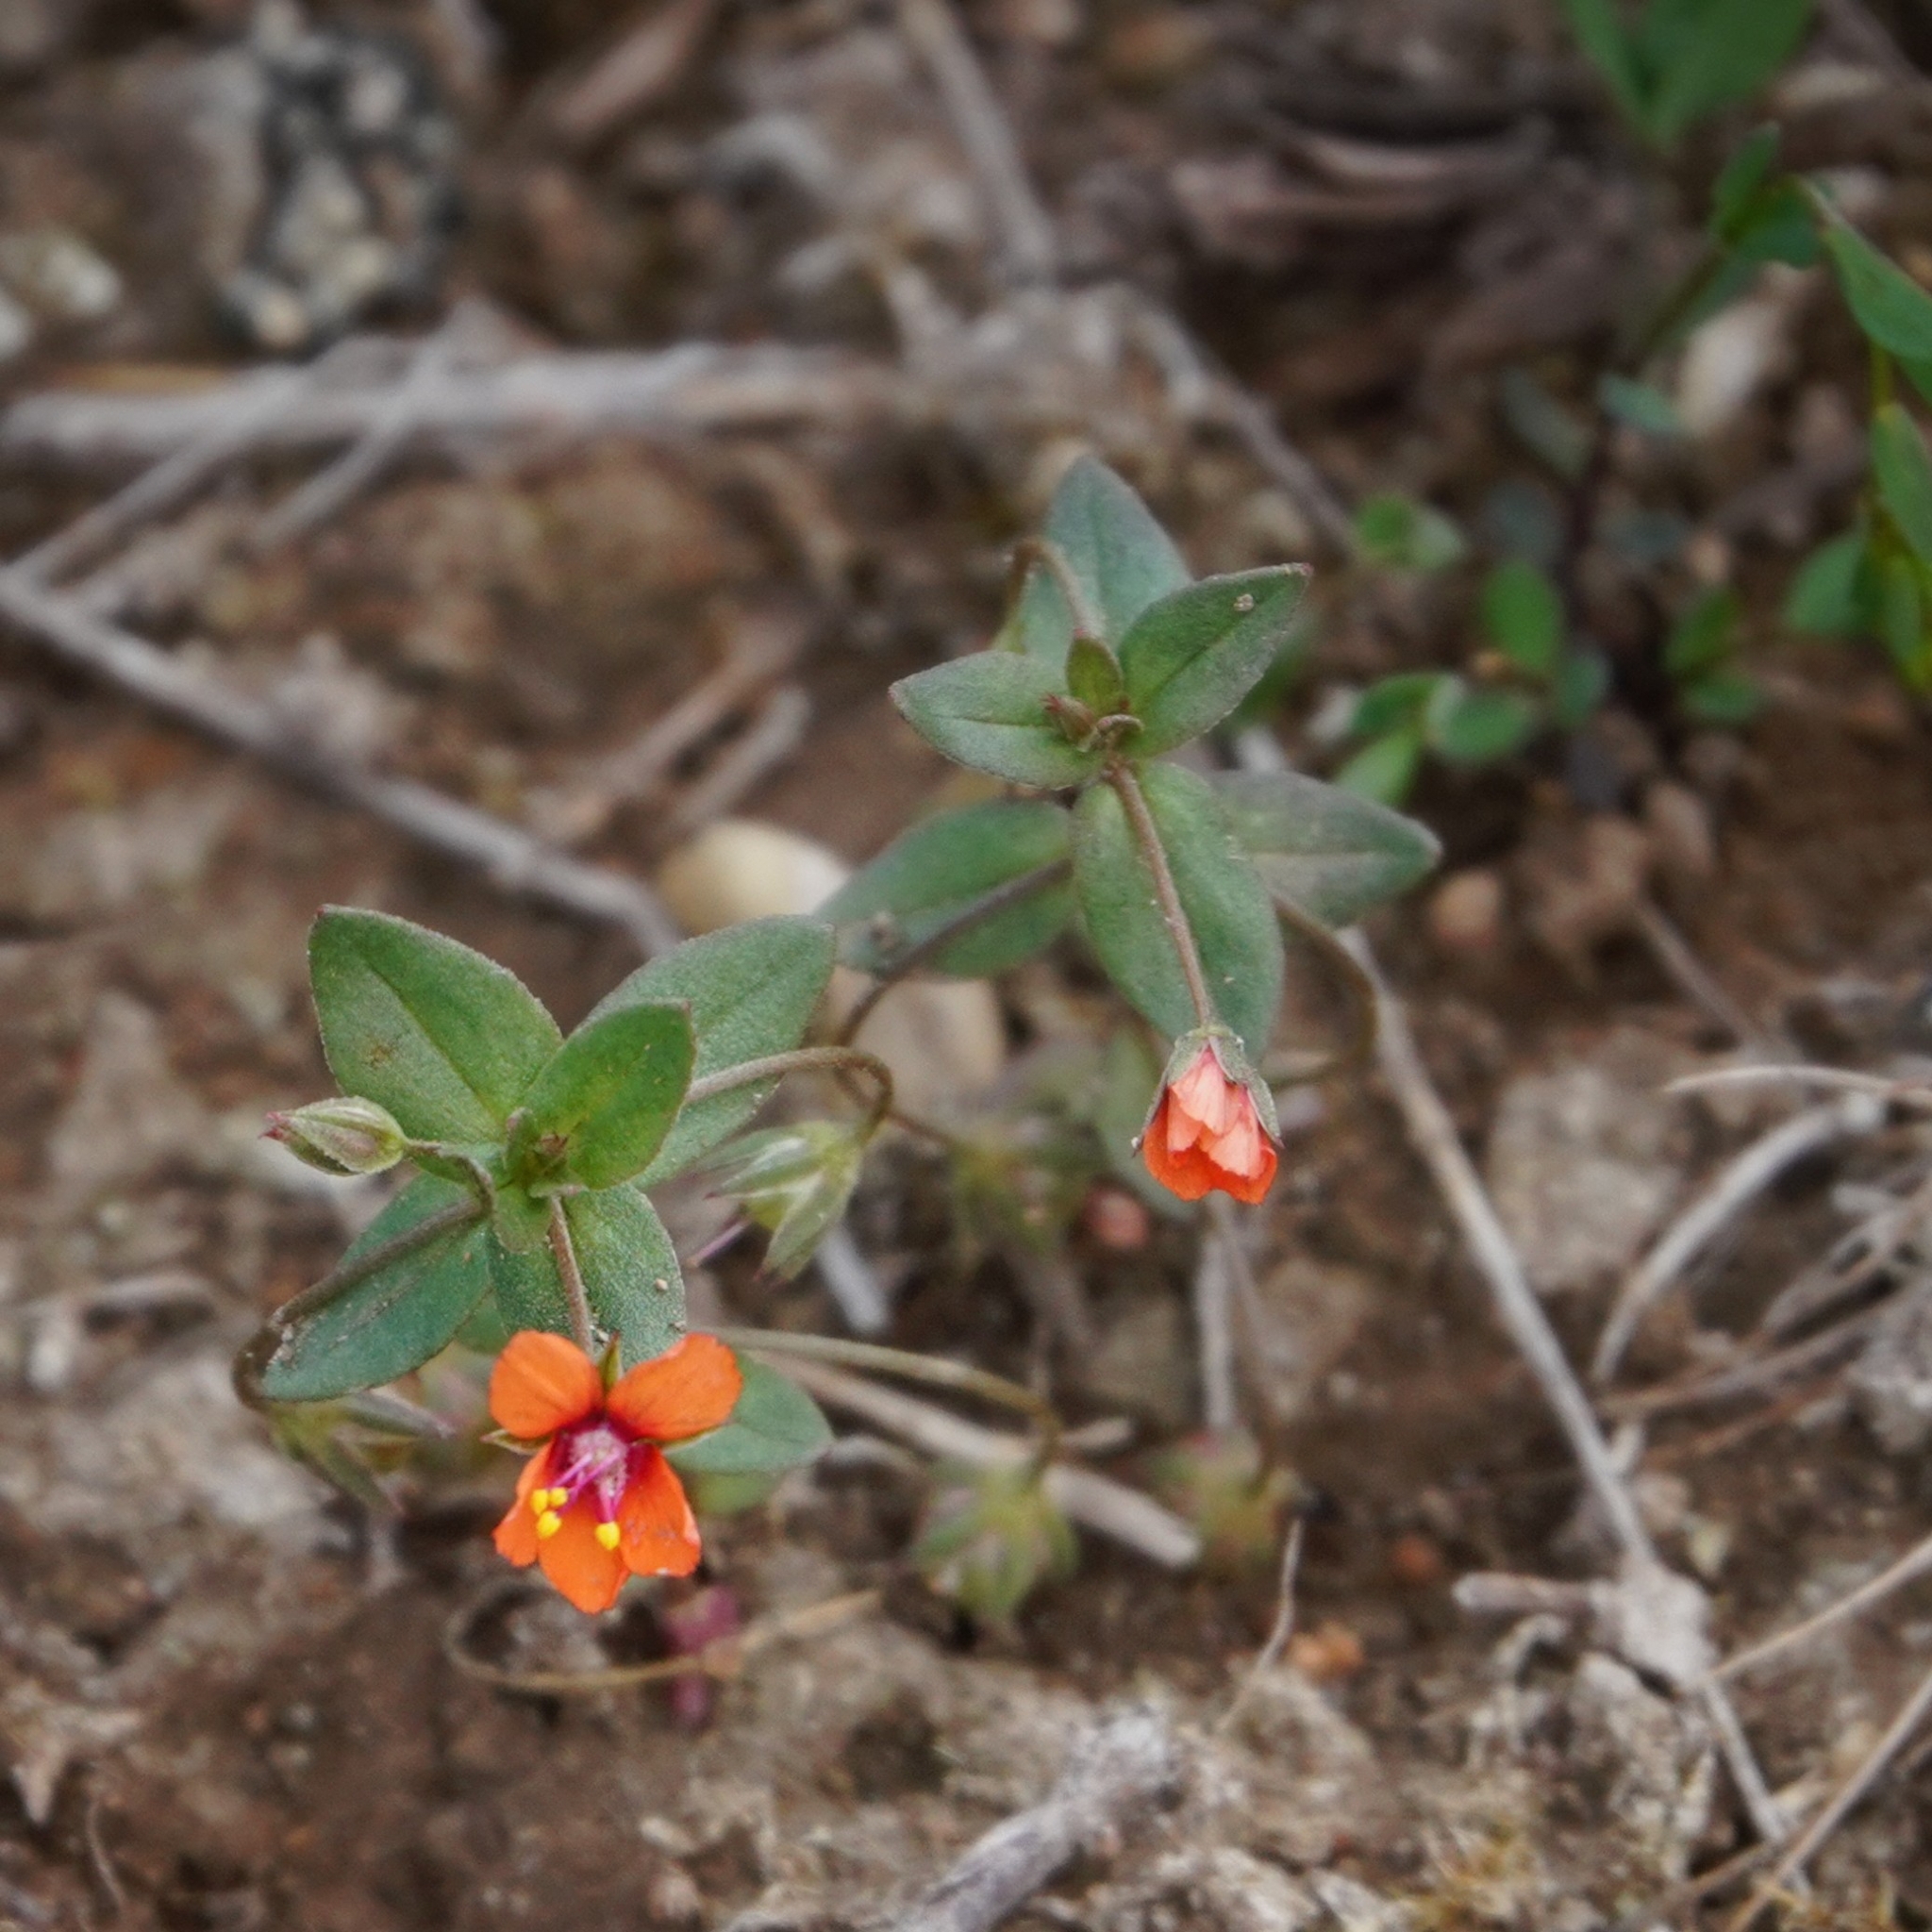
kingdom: Plantae
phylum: Tracheophyta
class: Magnoliopsida
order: Ericales
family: Primulaceae
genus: Lysimachia
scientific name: Lysimachia arvensis
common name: Scarlet pimpernel
